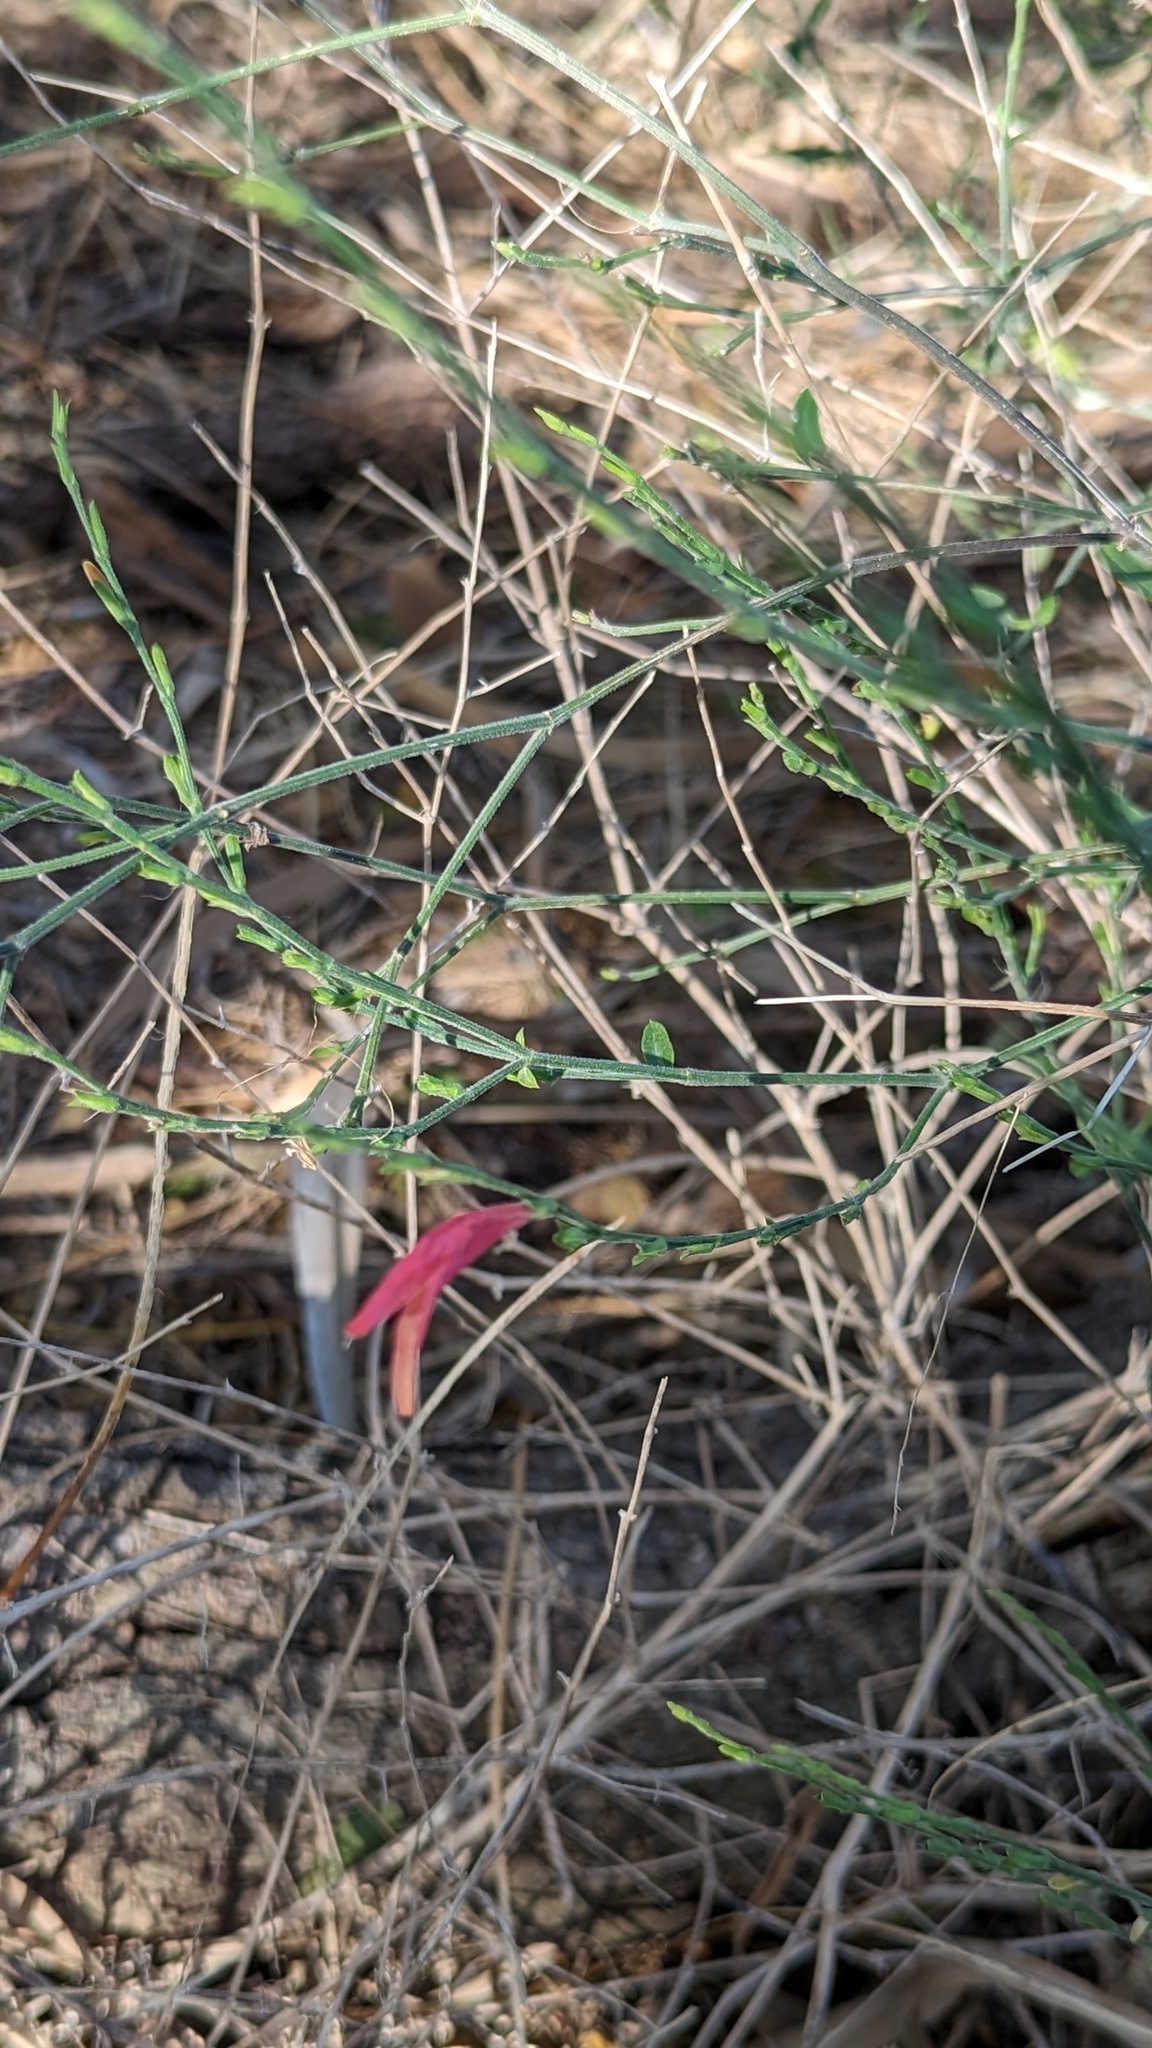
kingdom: Plantae
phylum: Tracheophyta
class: Magnoliopsida
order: Lamiales
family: Acanthaceae
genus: Dicliptera
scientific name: Dicliptera sexangularis
